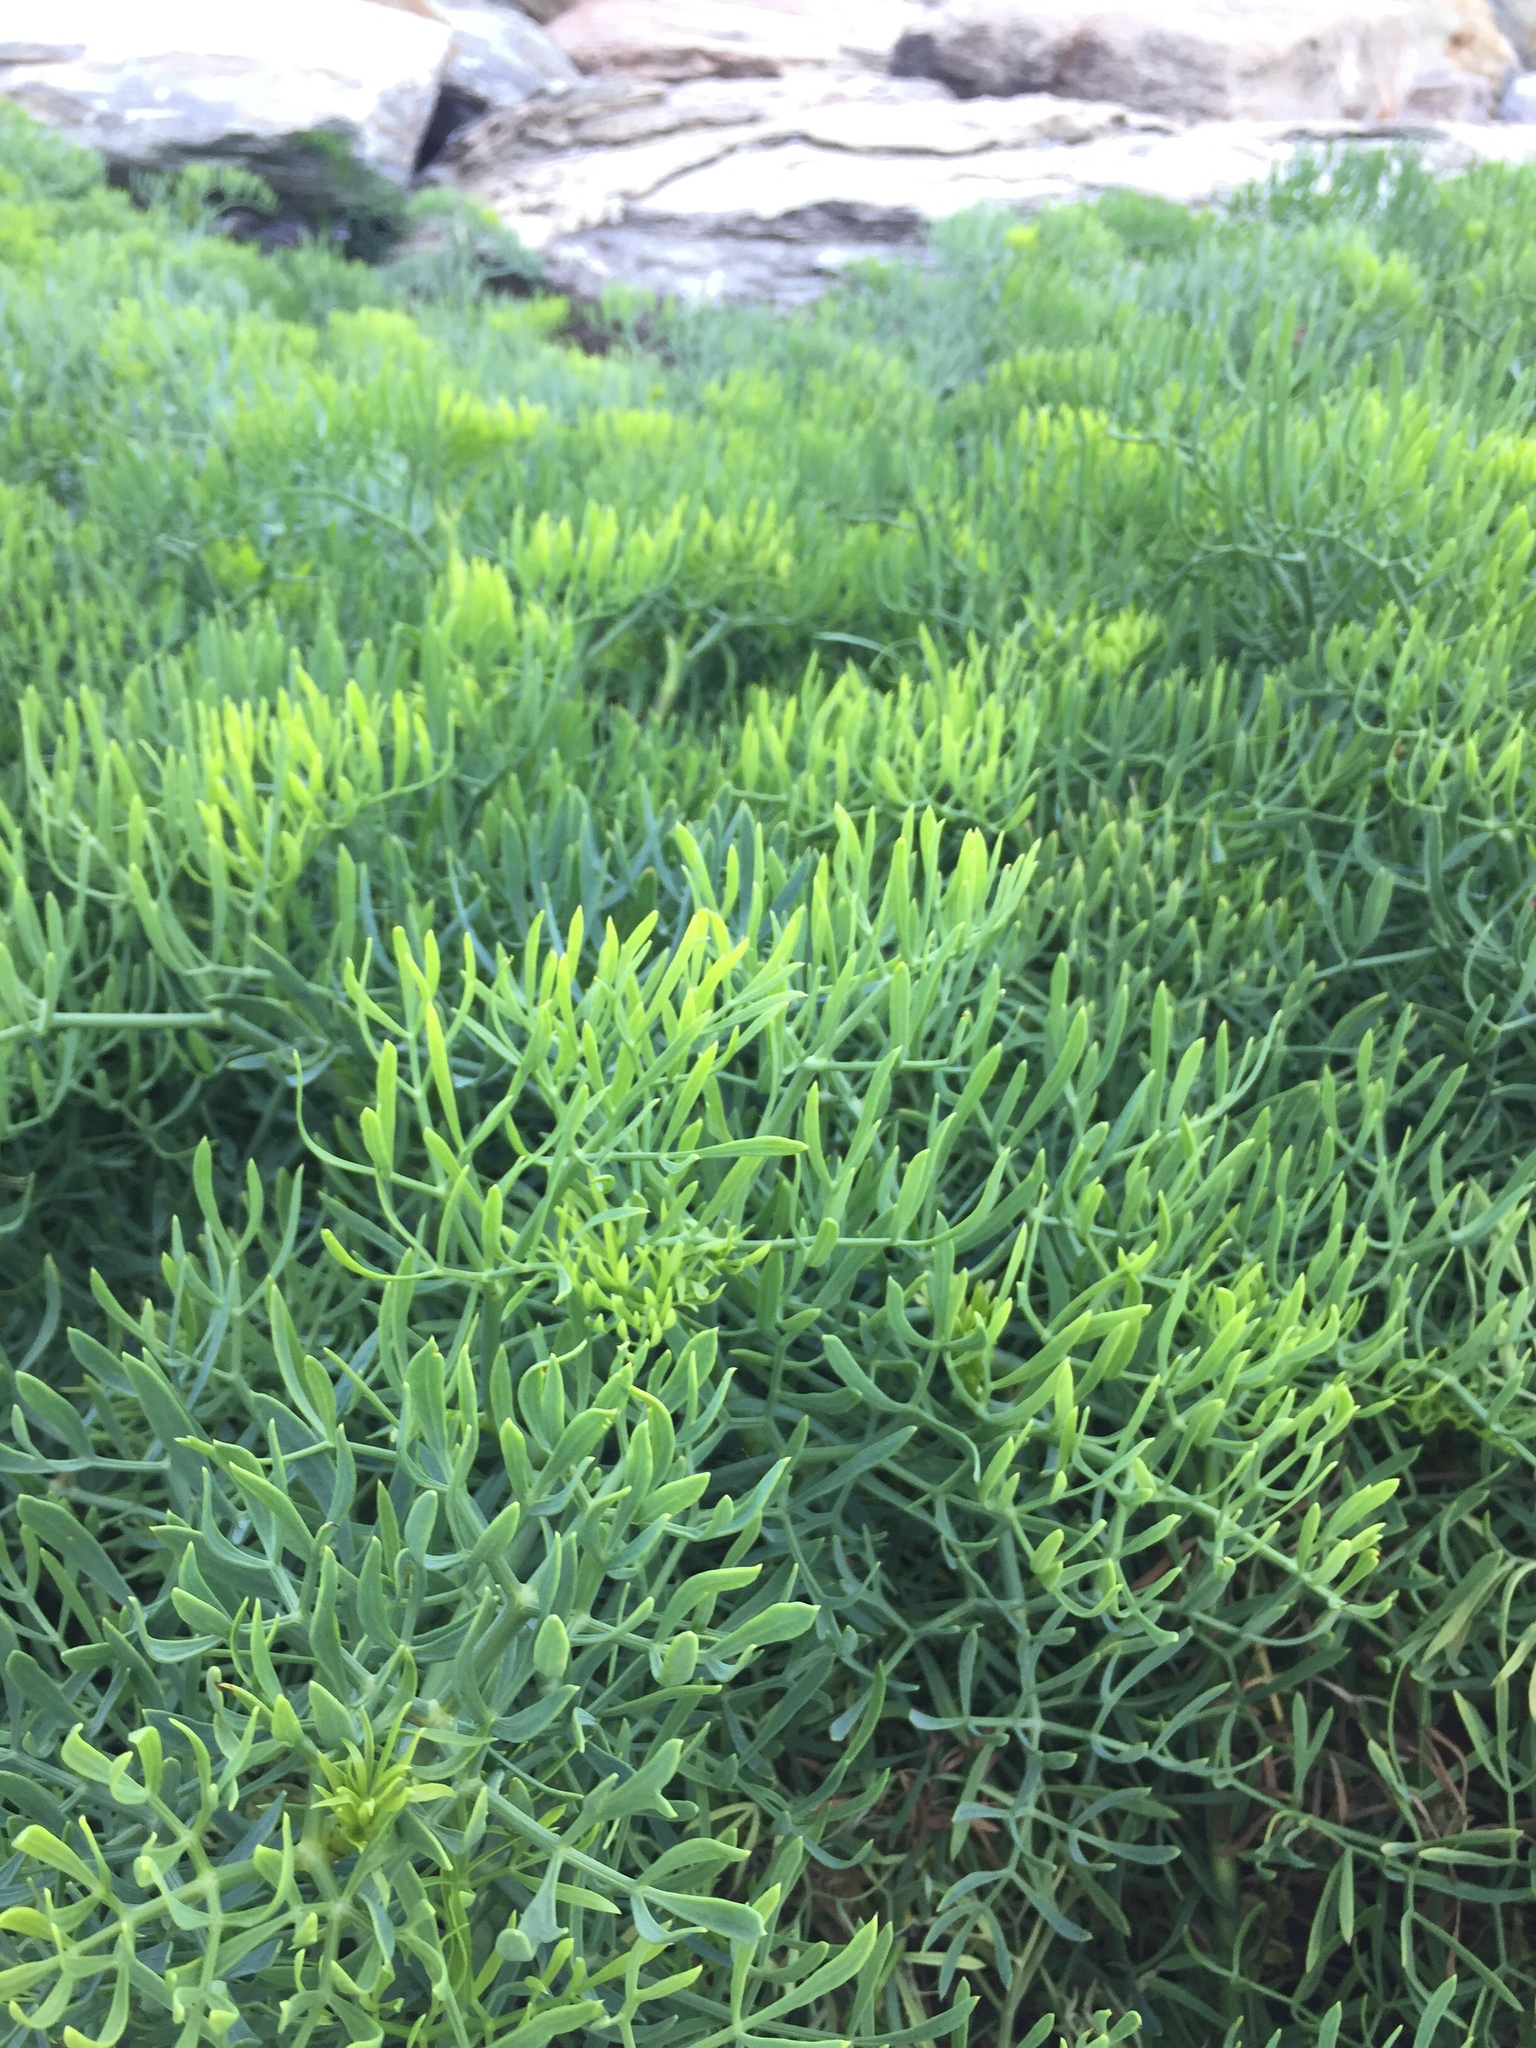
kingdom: Plantae
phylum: Tracheophyta
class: Magnoliopsida
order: Apiales
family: Apiaceae
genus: Crithmum
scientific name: Crithmum maritimum
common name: Rock samphire
